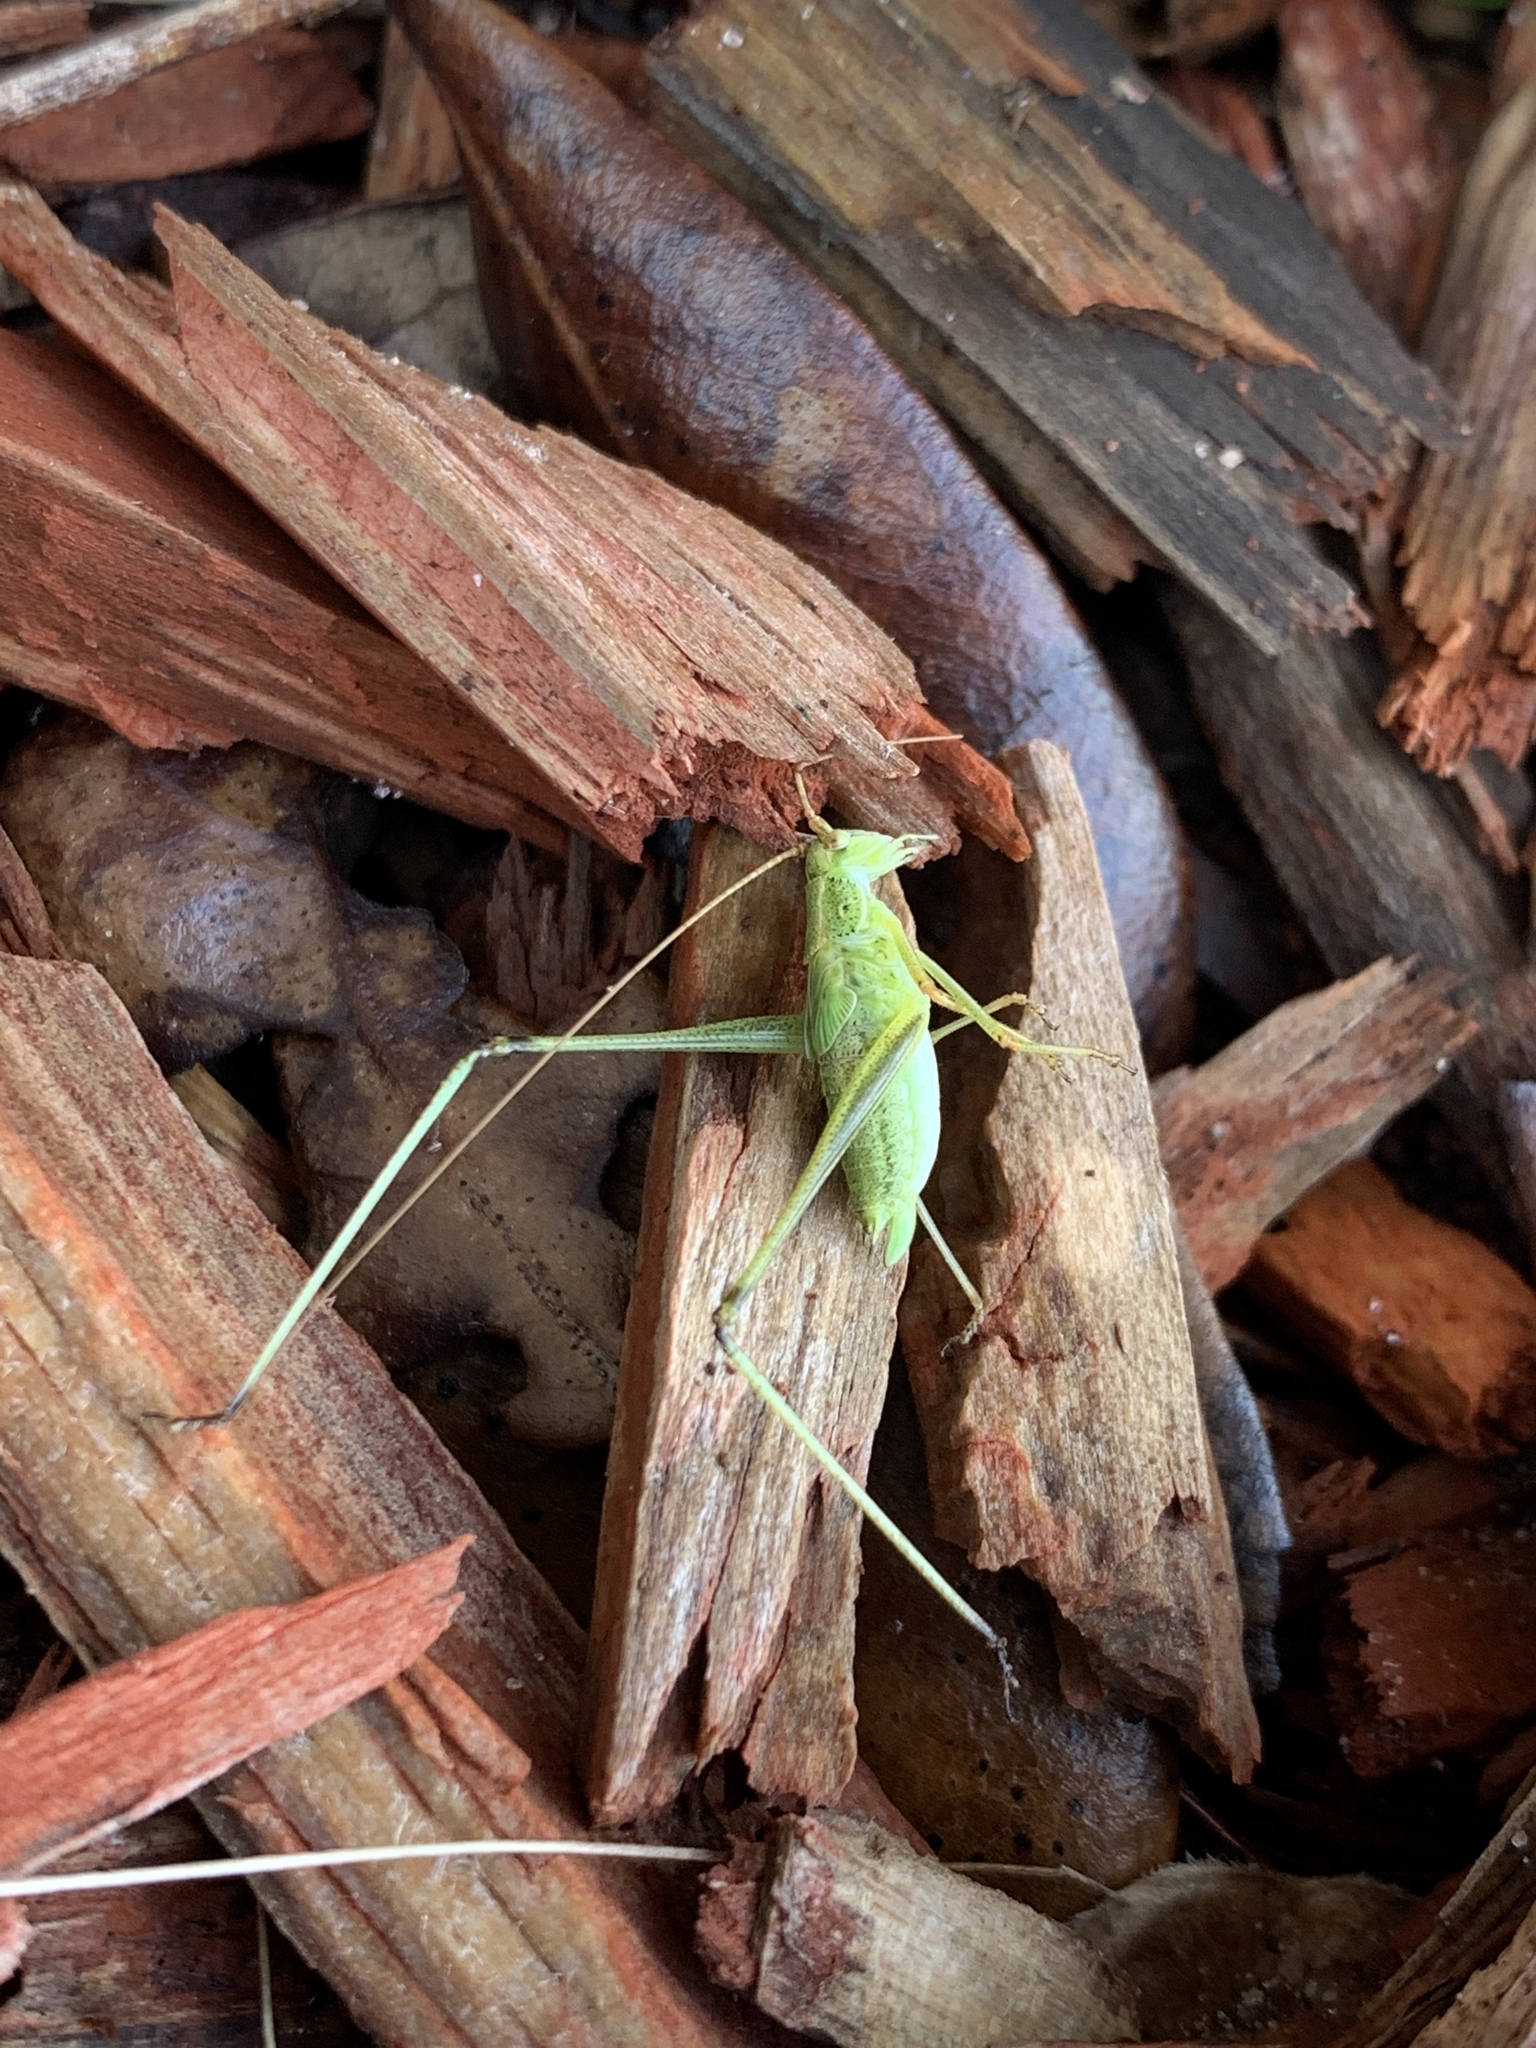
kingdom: Animalia
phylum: Arthropoda
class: Insecta
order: Orthoptera
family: Tettigoniidae
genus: Phaneroptera
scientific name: Phaneroptera
